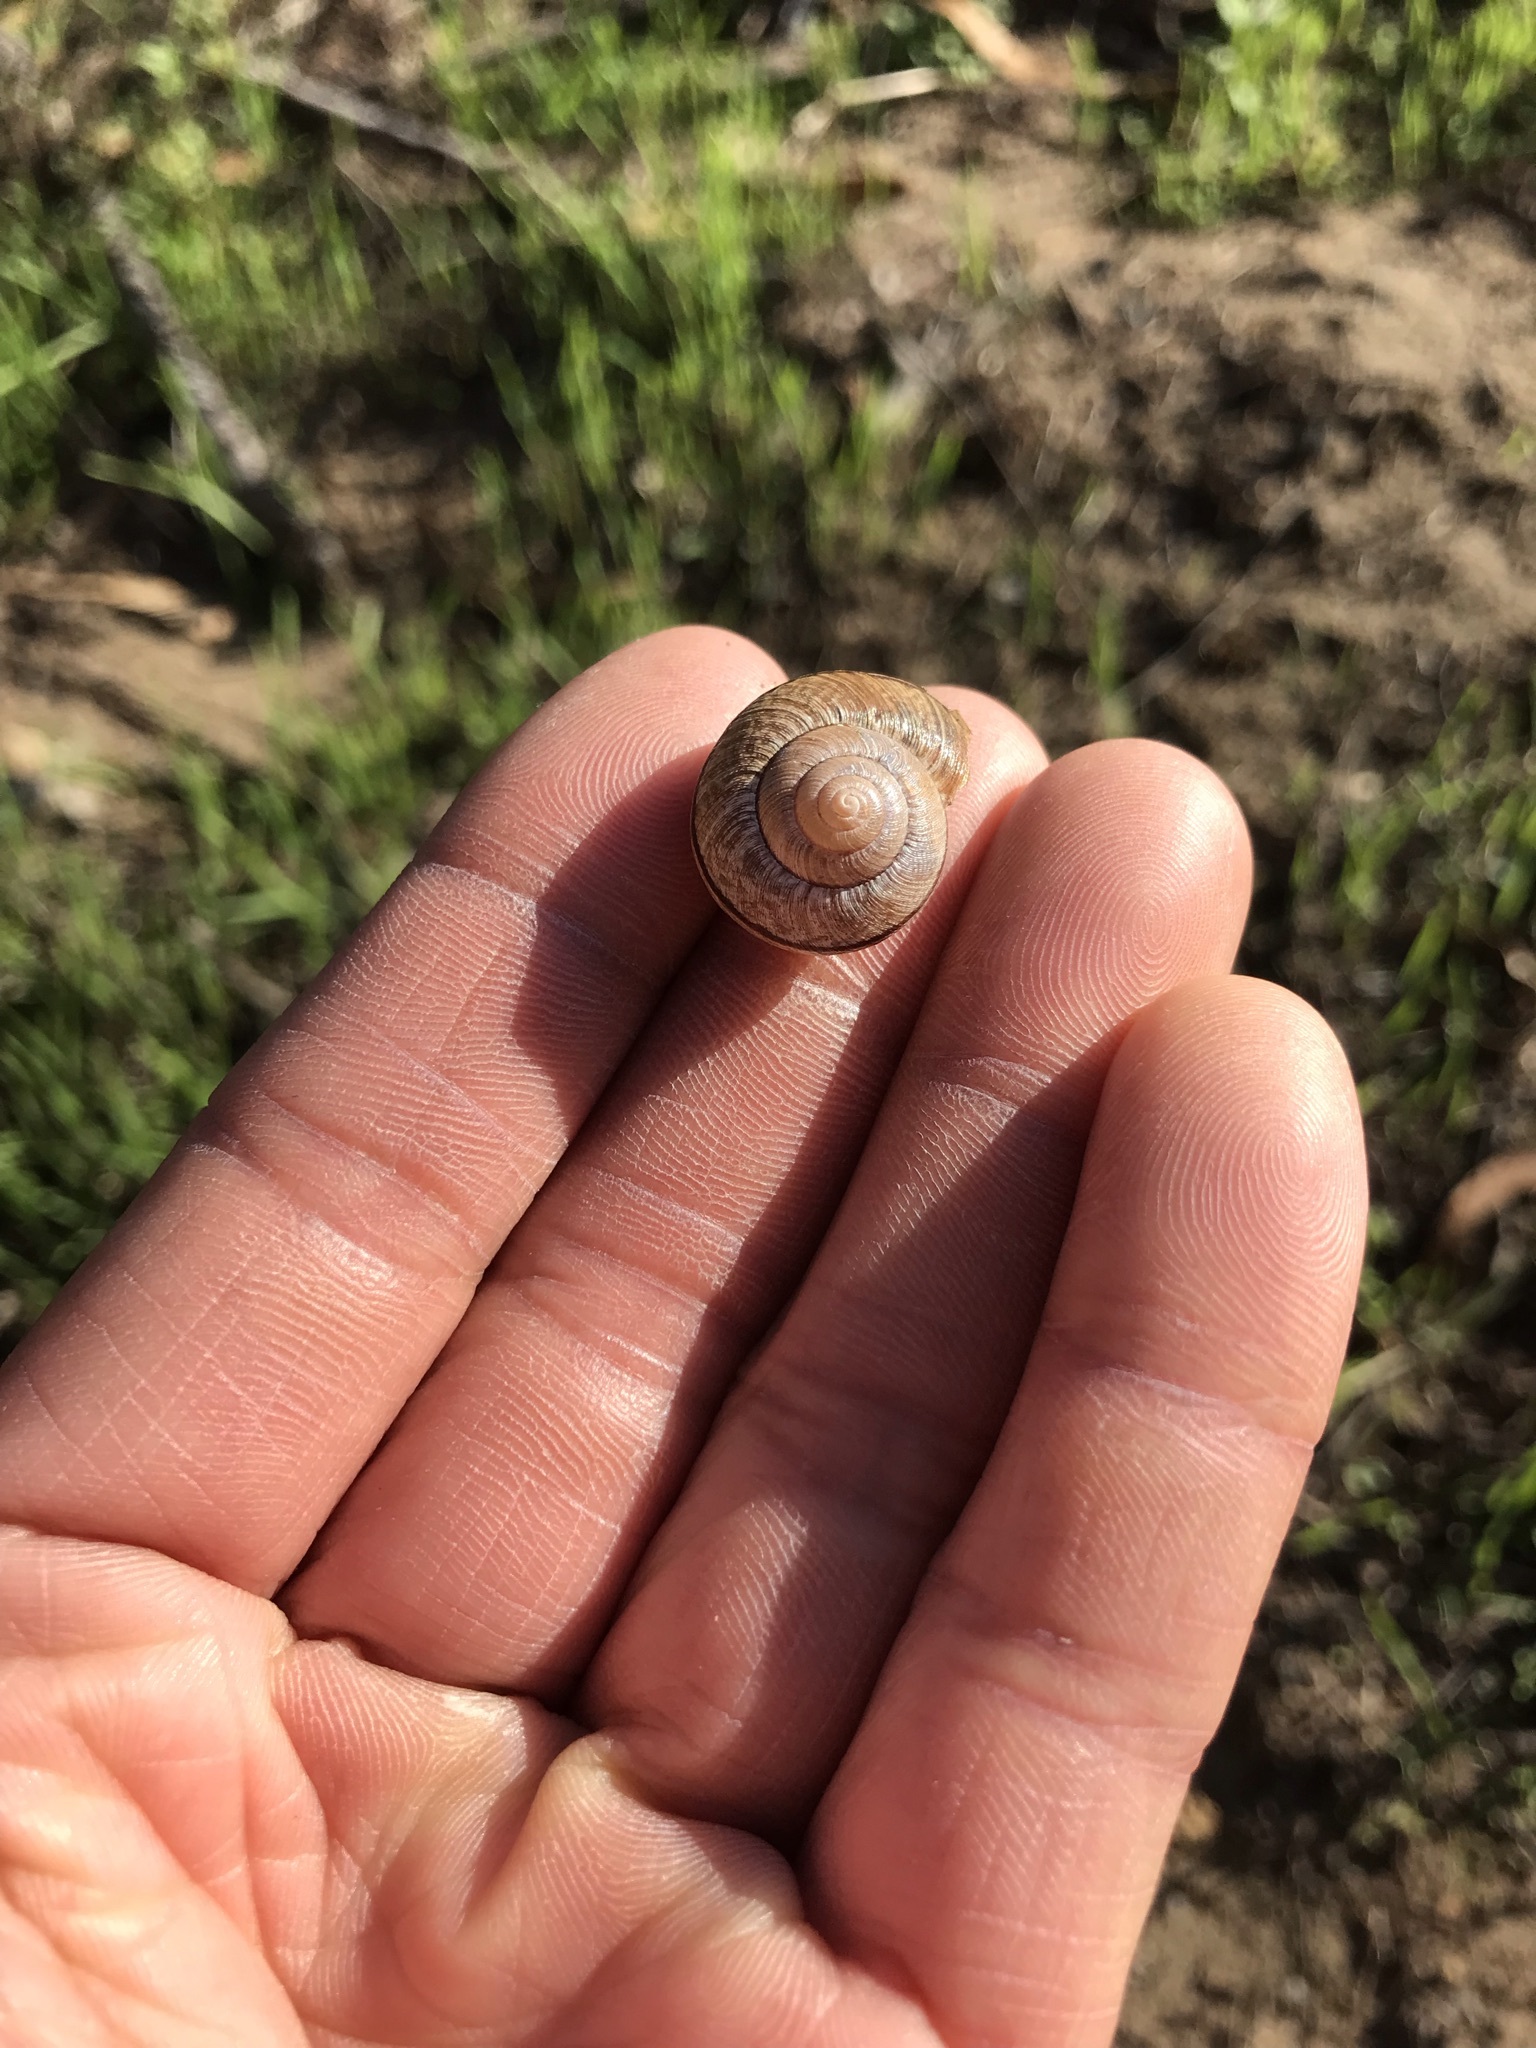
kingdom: Animalia
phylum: Mollusca
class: Gastropoda
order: Stylommatophora
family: Xanthonychidae
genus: Helminthoglypta
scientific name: Helminthoglypta nickliniana
